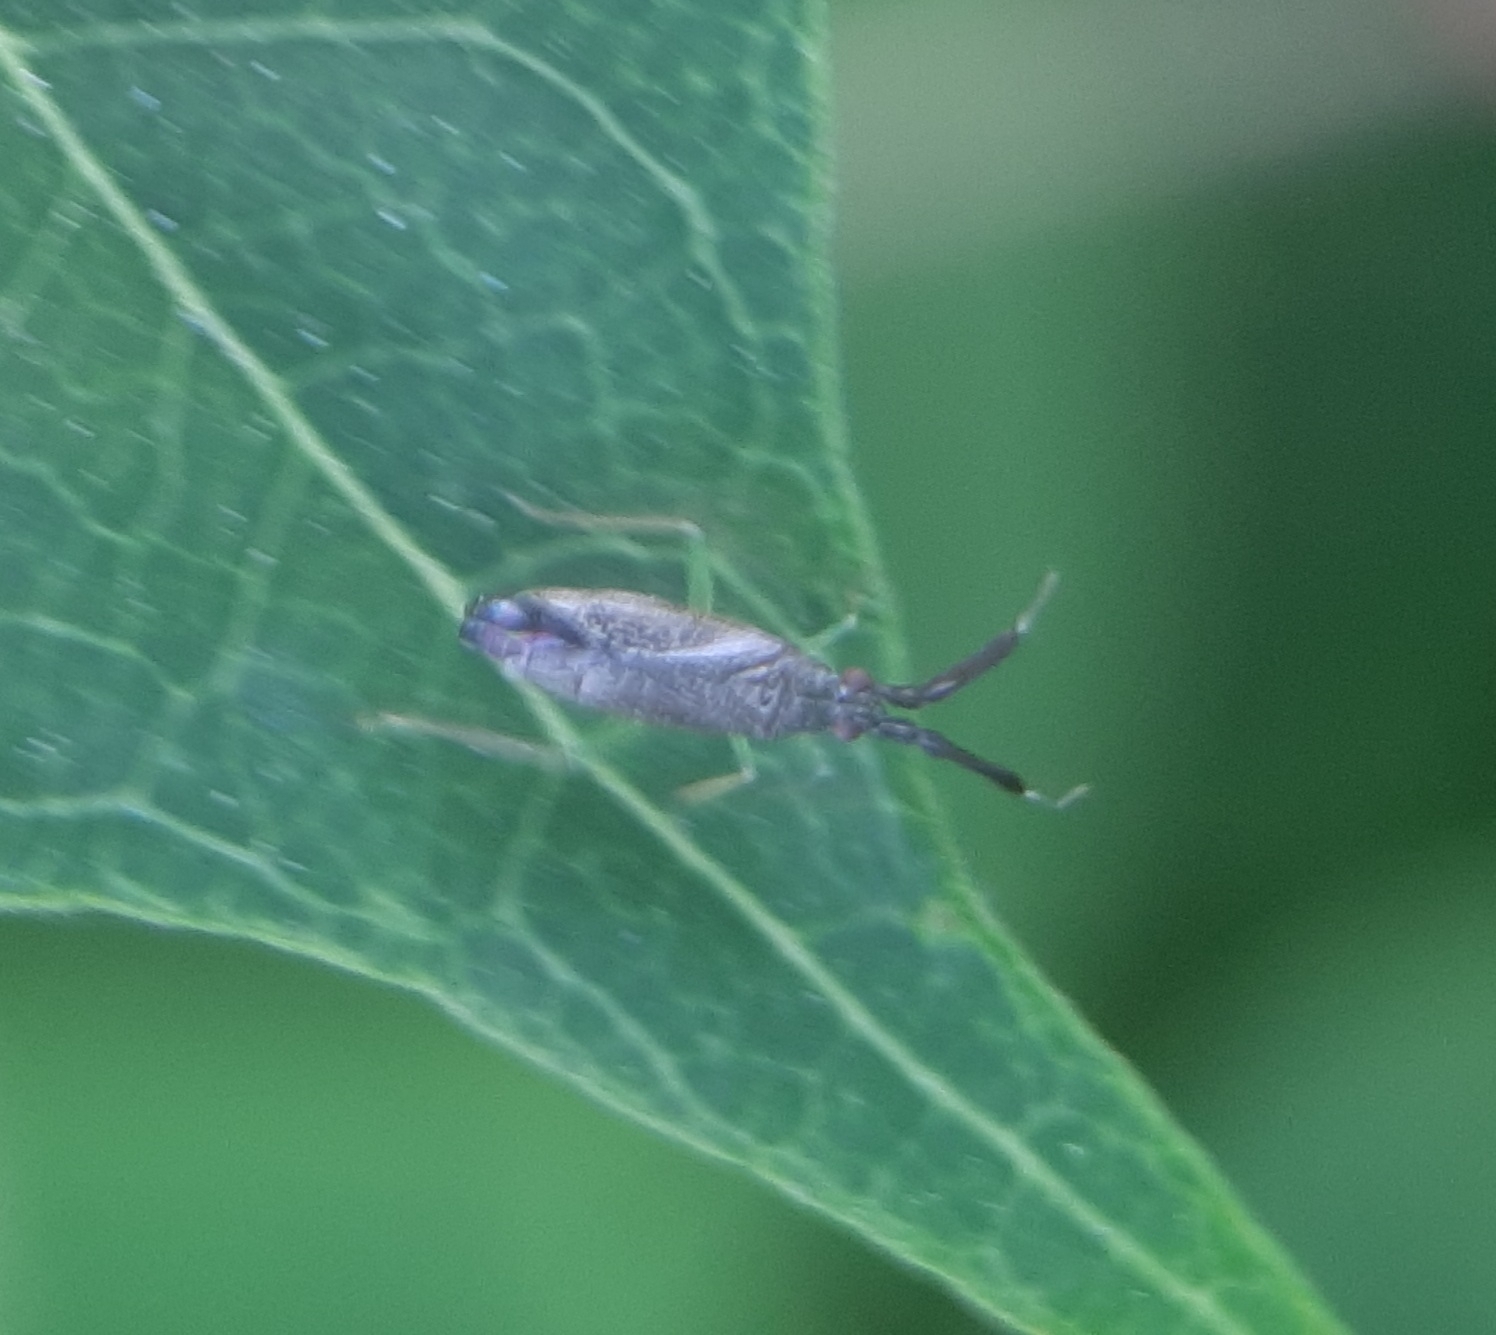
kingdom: Animalia
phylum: Arthropoda
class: Insecta
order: Hemiptera
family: Miridae
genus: Heterotoma
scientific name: Heterotoma planicornis
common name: Plant bug
